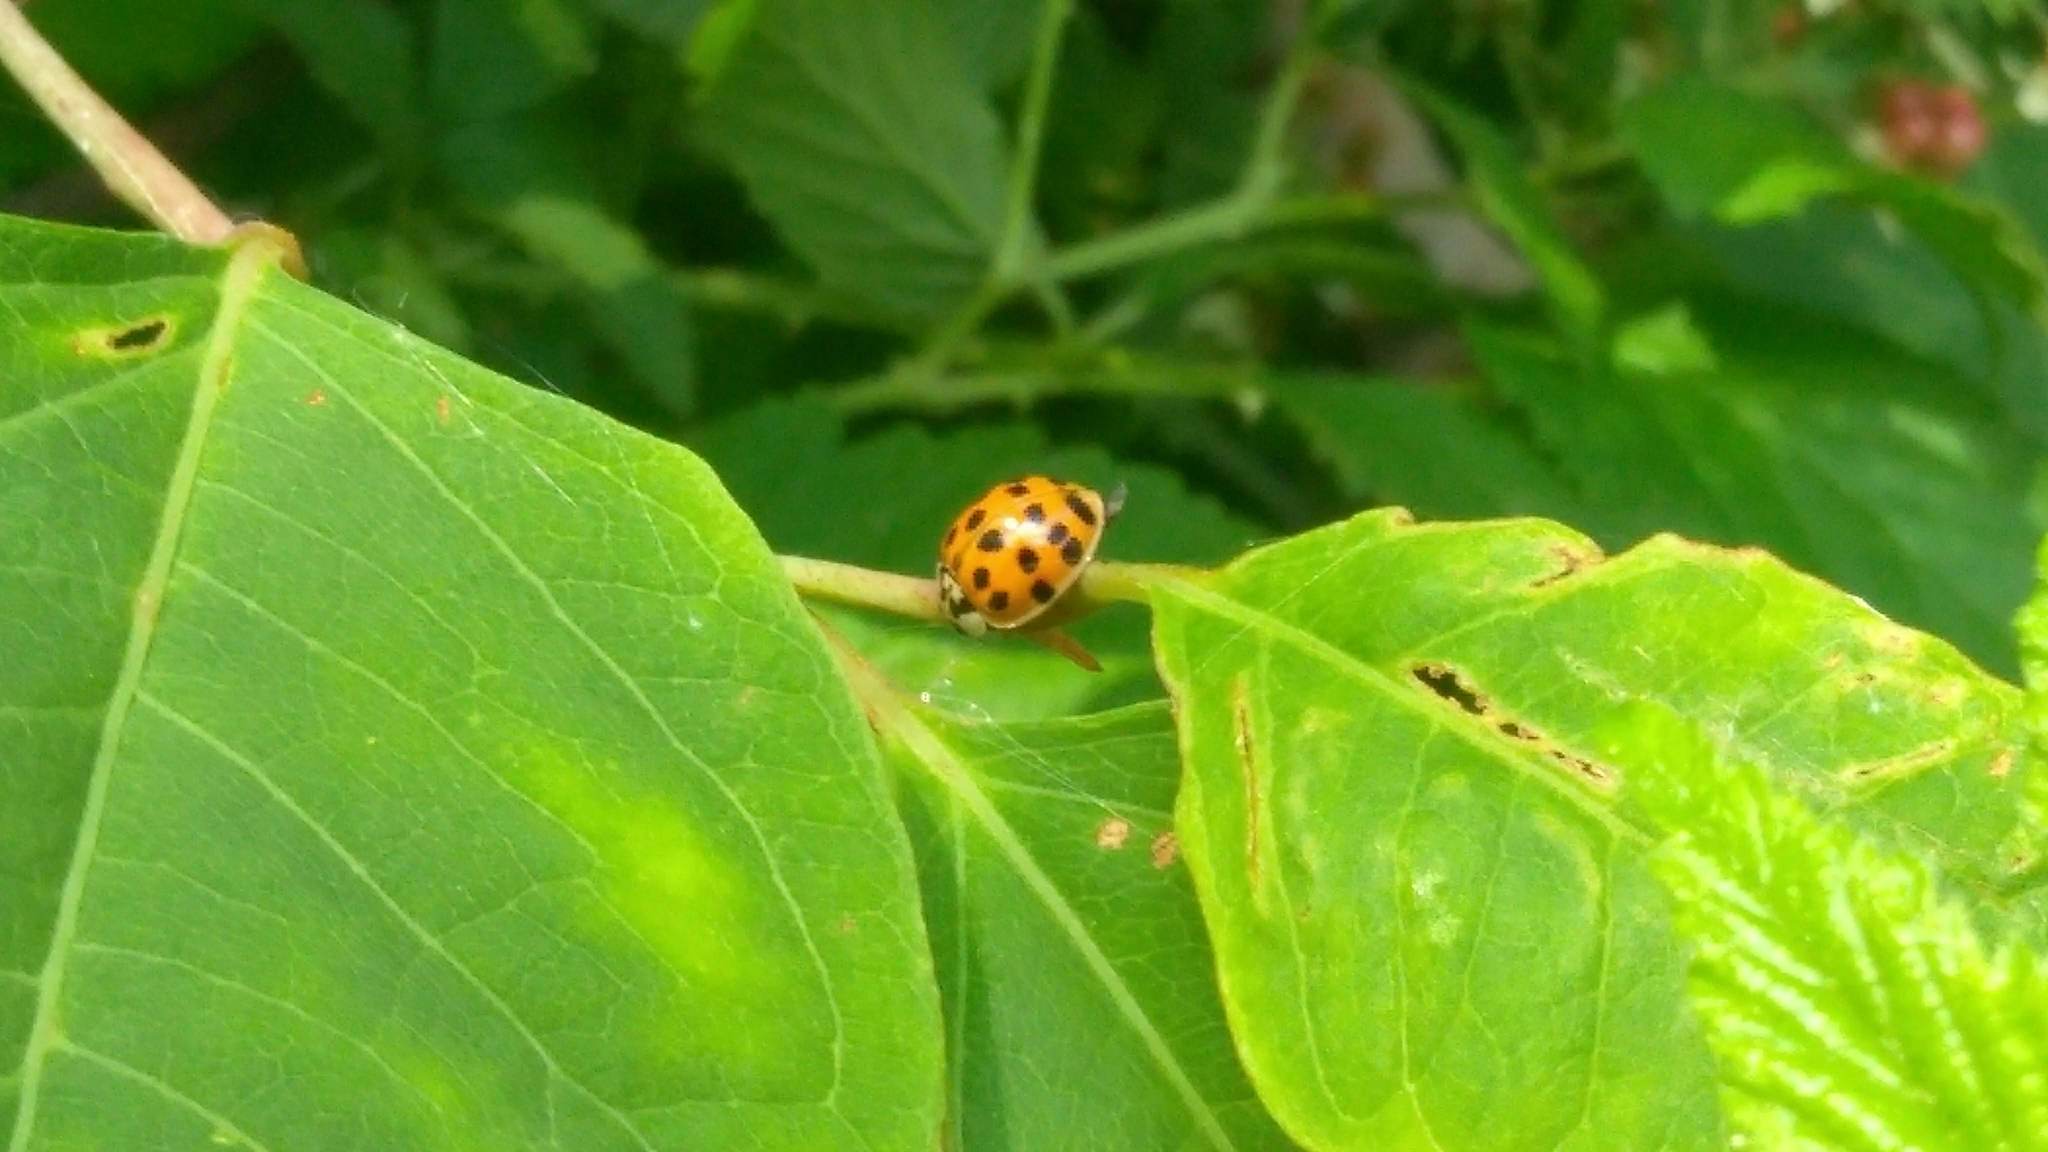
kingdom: Animalia
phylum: Arthropoda
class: Insecta
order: Coleoptera
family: Coccinellidae
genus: Harmonia
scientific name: Harmonia axyridis
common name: Harlequin ladybird
